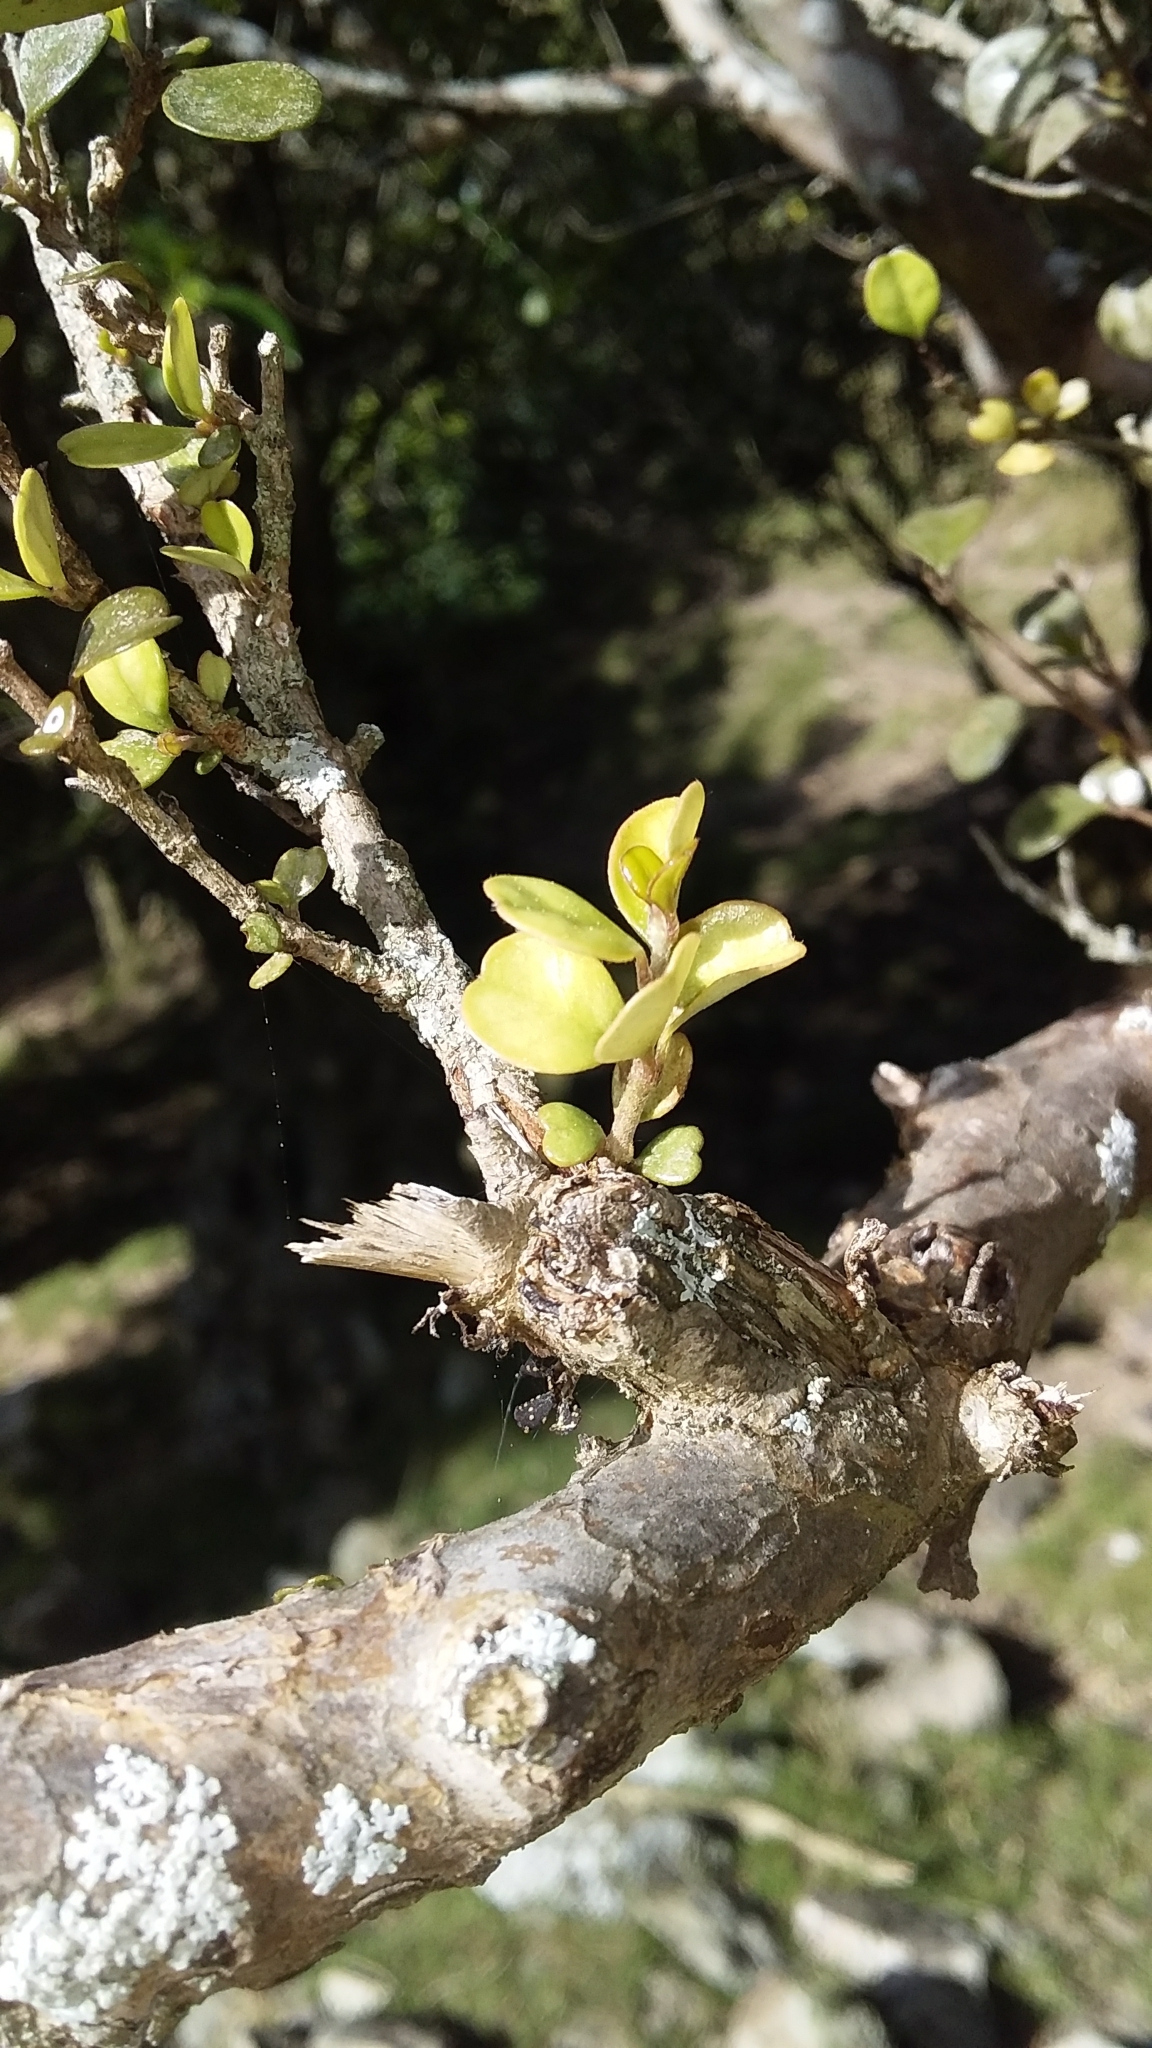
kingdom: Plantae
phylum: Tracheophyta
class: Magnoliopsida
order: Myrtales
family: Myrtaceae
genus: Lophomyrtus
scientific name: Lophomyrtus obcordata
